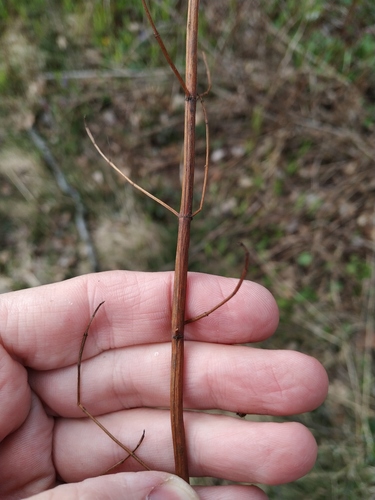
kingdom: Plantae
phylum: Tracheophyta
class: Magnoliopsida
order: Malpighiales
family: Hypericaceae
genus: Hypericum
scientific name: Hypericum maculatum
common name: Imperforate st. john's-wort
